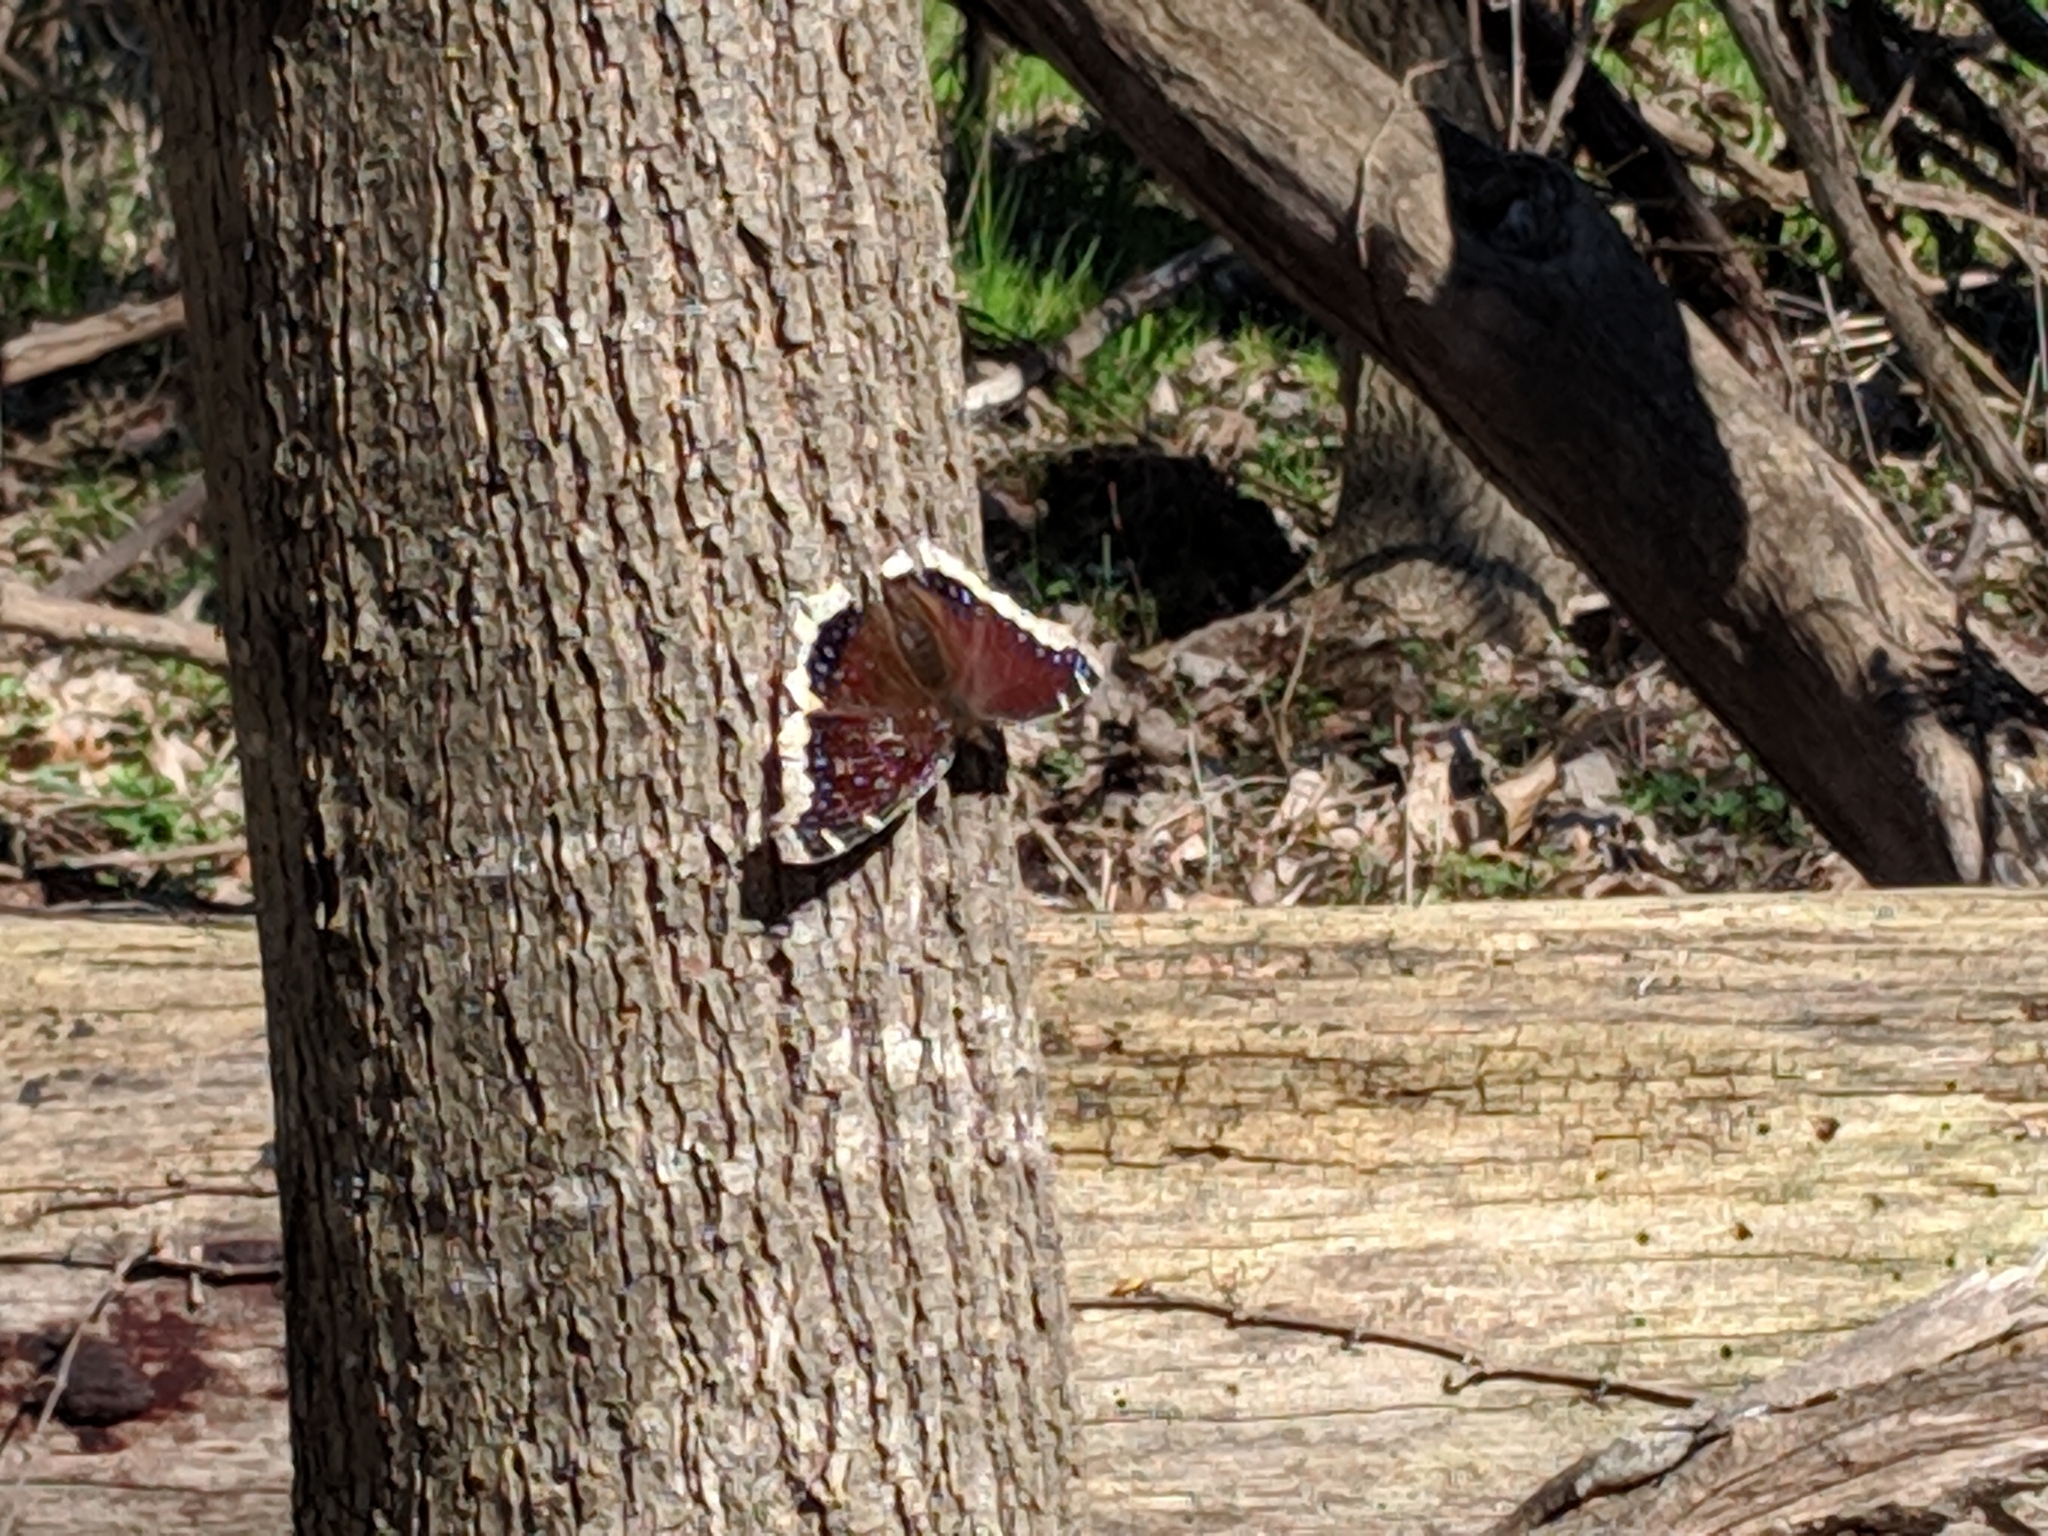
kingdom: Animalia
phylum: Arthropoda
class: Insecta
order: Lepidoptera
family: Nymphalidae
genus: Nymphalis
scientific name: Nymphalis antiopa
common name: Camberwell beauty
